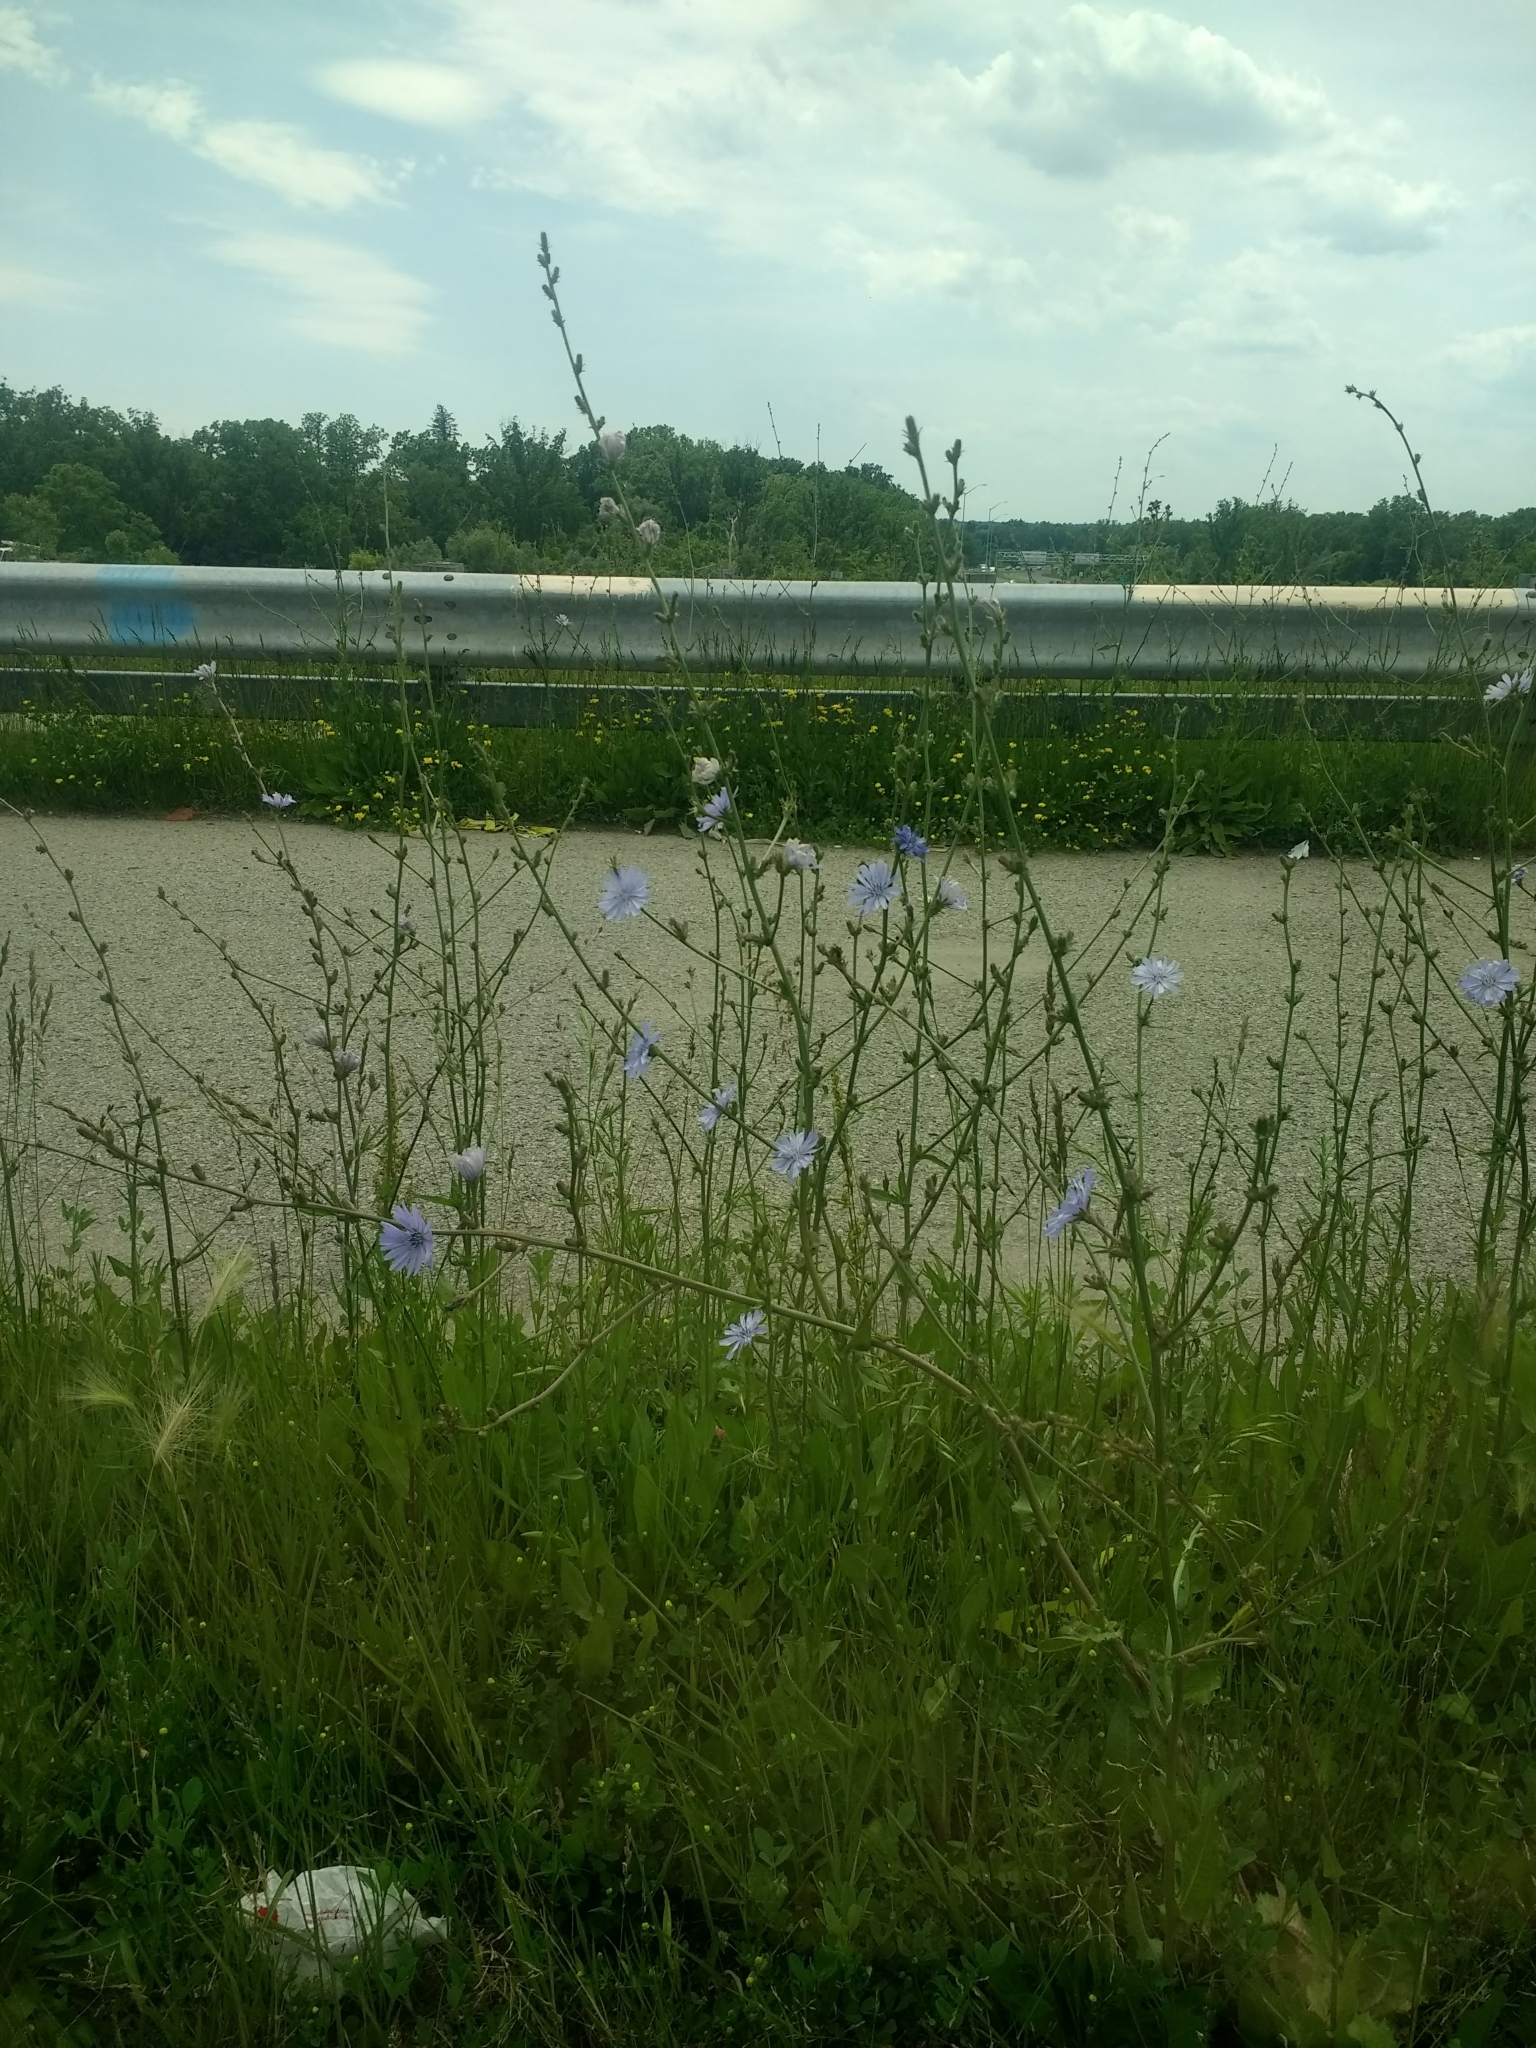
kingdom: Plantae
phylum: Tracheophyta
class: Magnoliopsida
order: Asterales
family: Asteraceae
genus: Cichorium
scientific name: Cichorium intybus
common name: Chicory
